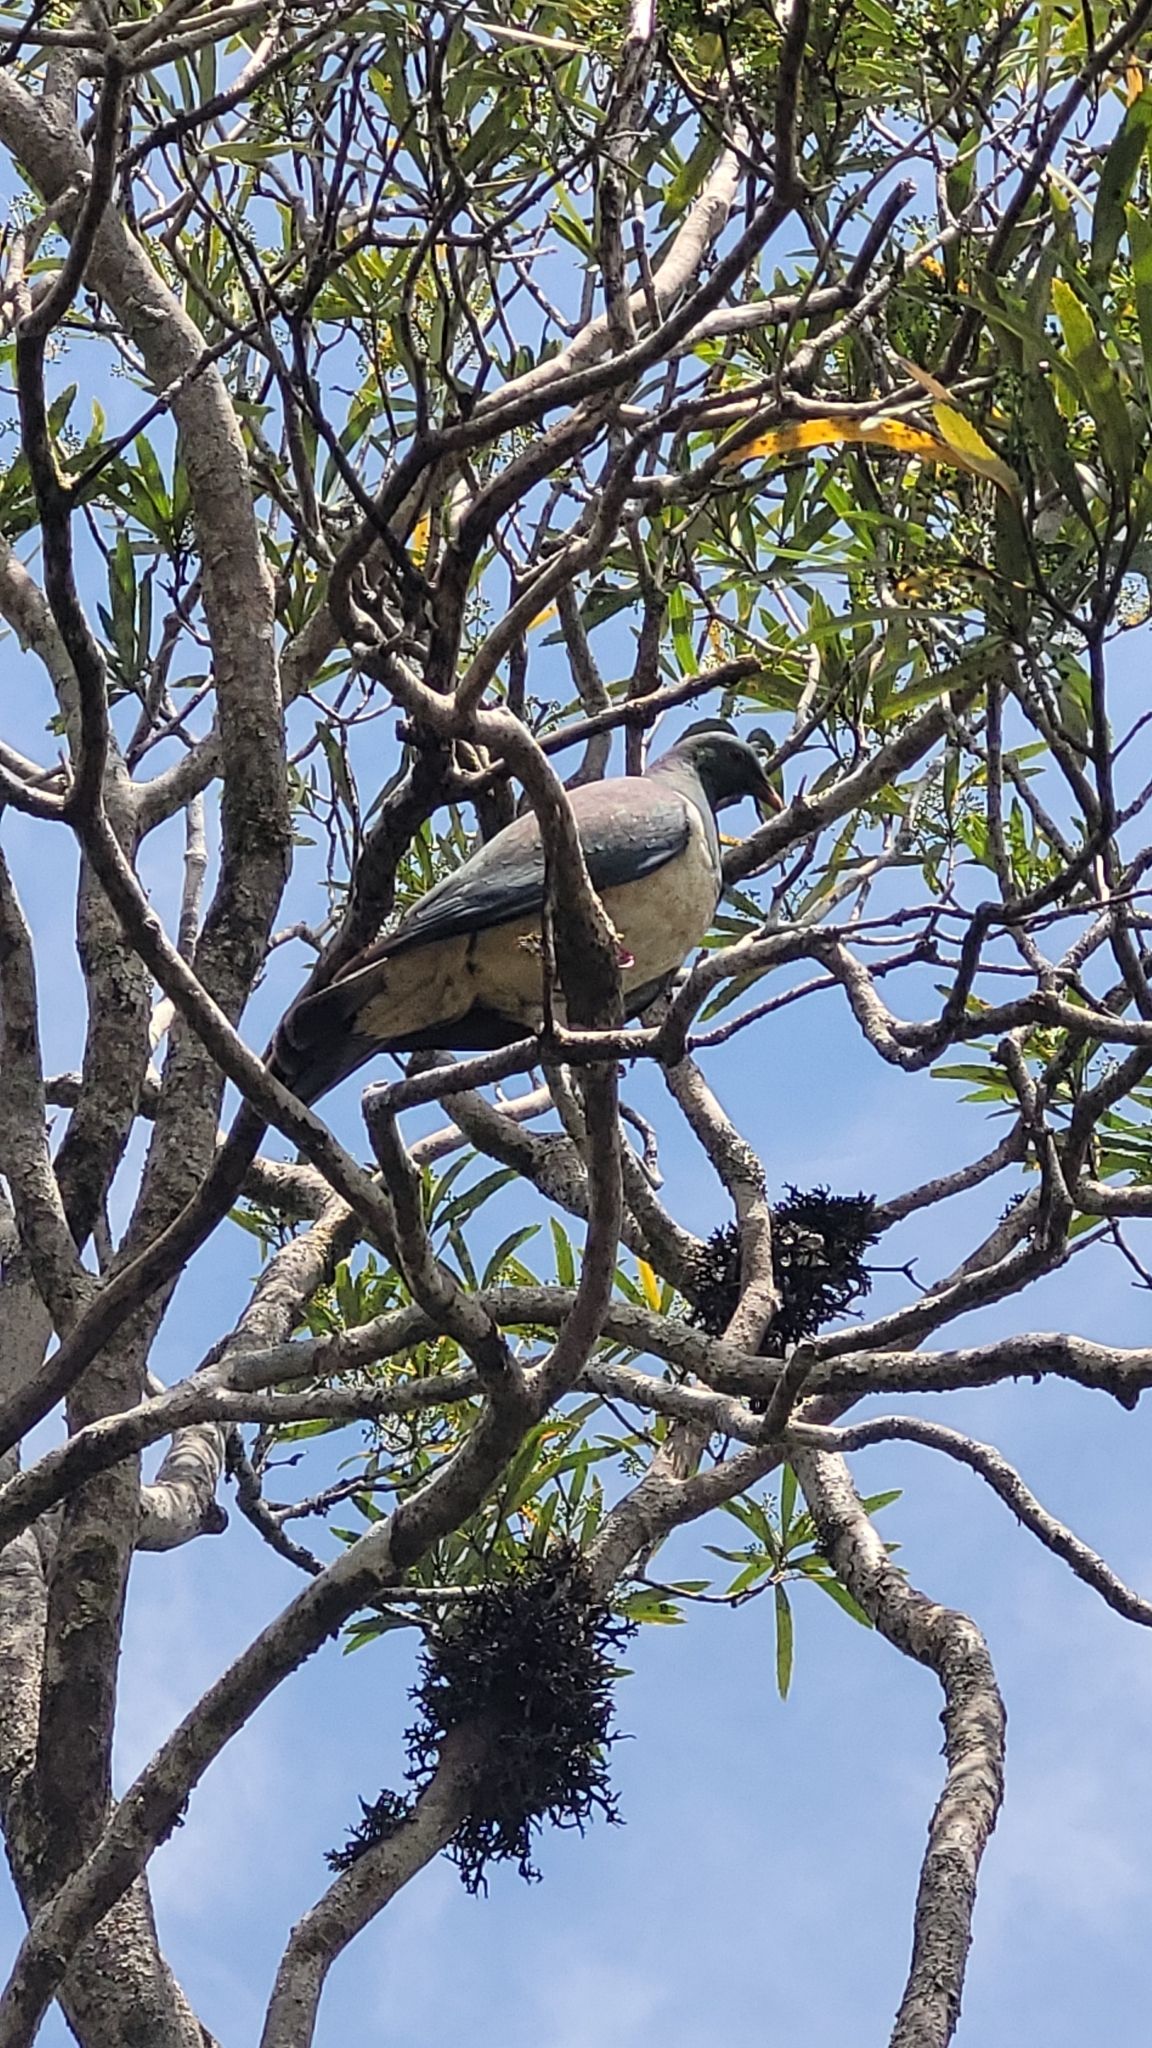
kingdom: Animalia
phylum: Chordata
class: Aves
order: Columbiformes
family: Columbidae
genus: Hemiphaga
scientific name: Hemiphaga novaeseelandiae
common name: New zealand pigeon
